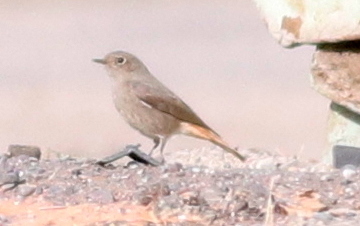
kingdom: Animalia
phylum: Chordata
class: Aves
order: Passeriformes
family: Muscicapidae
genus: Phoenicurus
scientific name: Phoenicurus ochruros
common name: Black redstart
